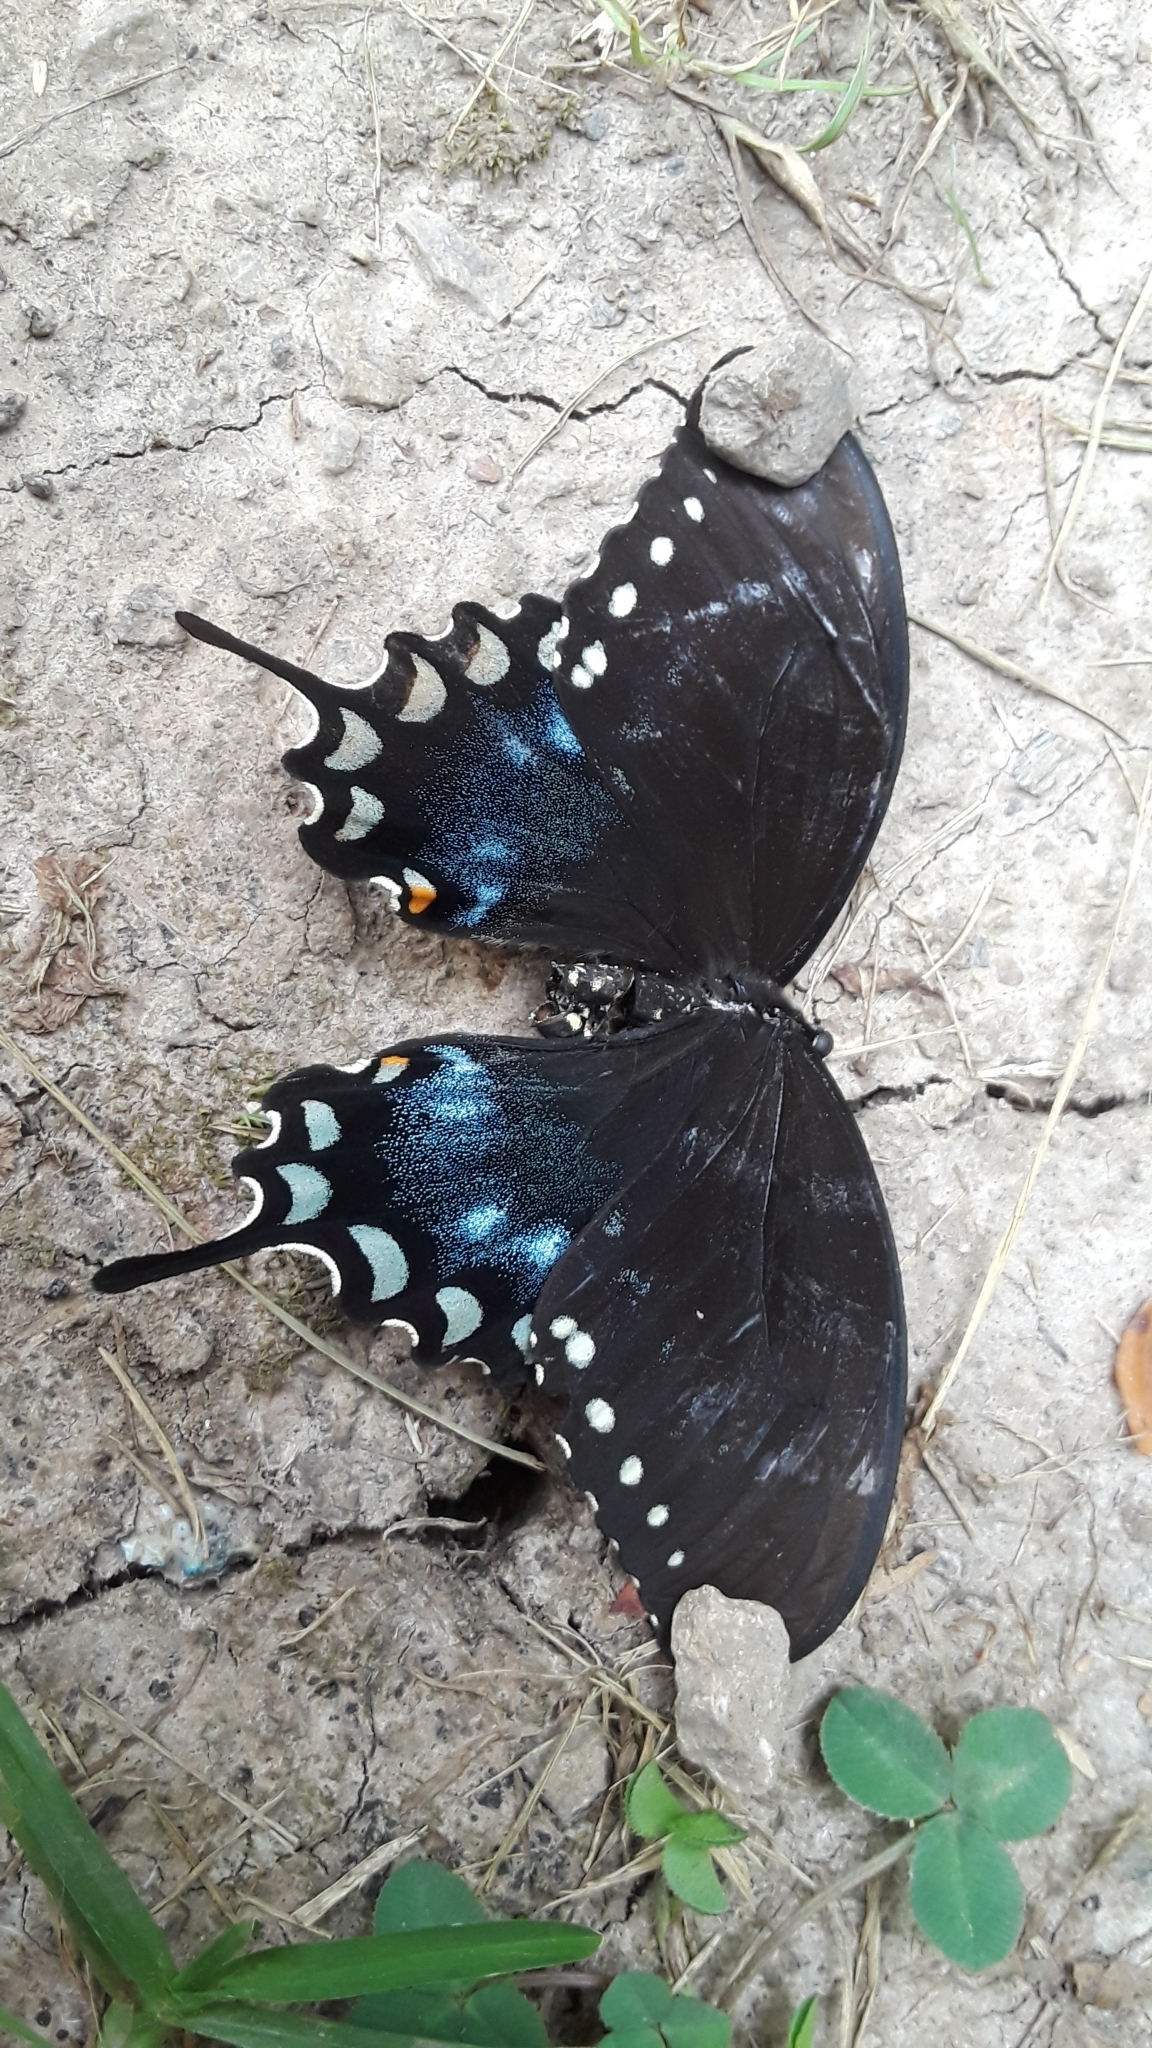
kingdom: Animalia
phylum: Arthropoda
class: Insecta
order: Lepidoptera
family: Papilionidae
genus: Papilio
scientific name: Papilio troilus
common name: Spicebush swallowtail
